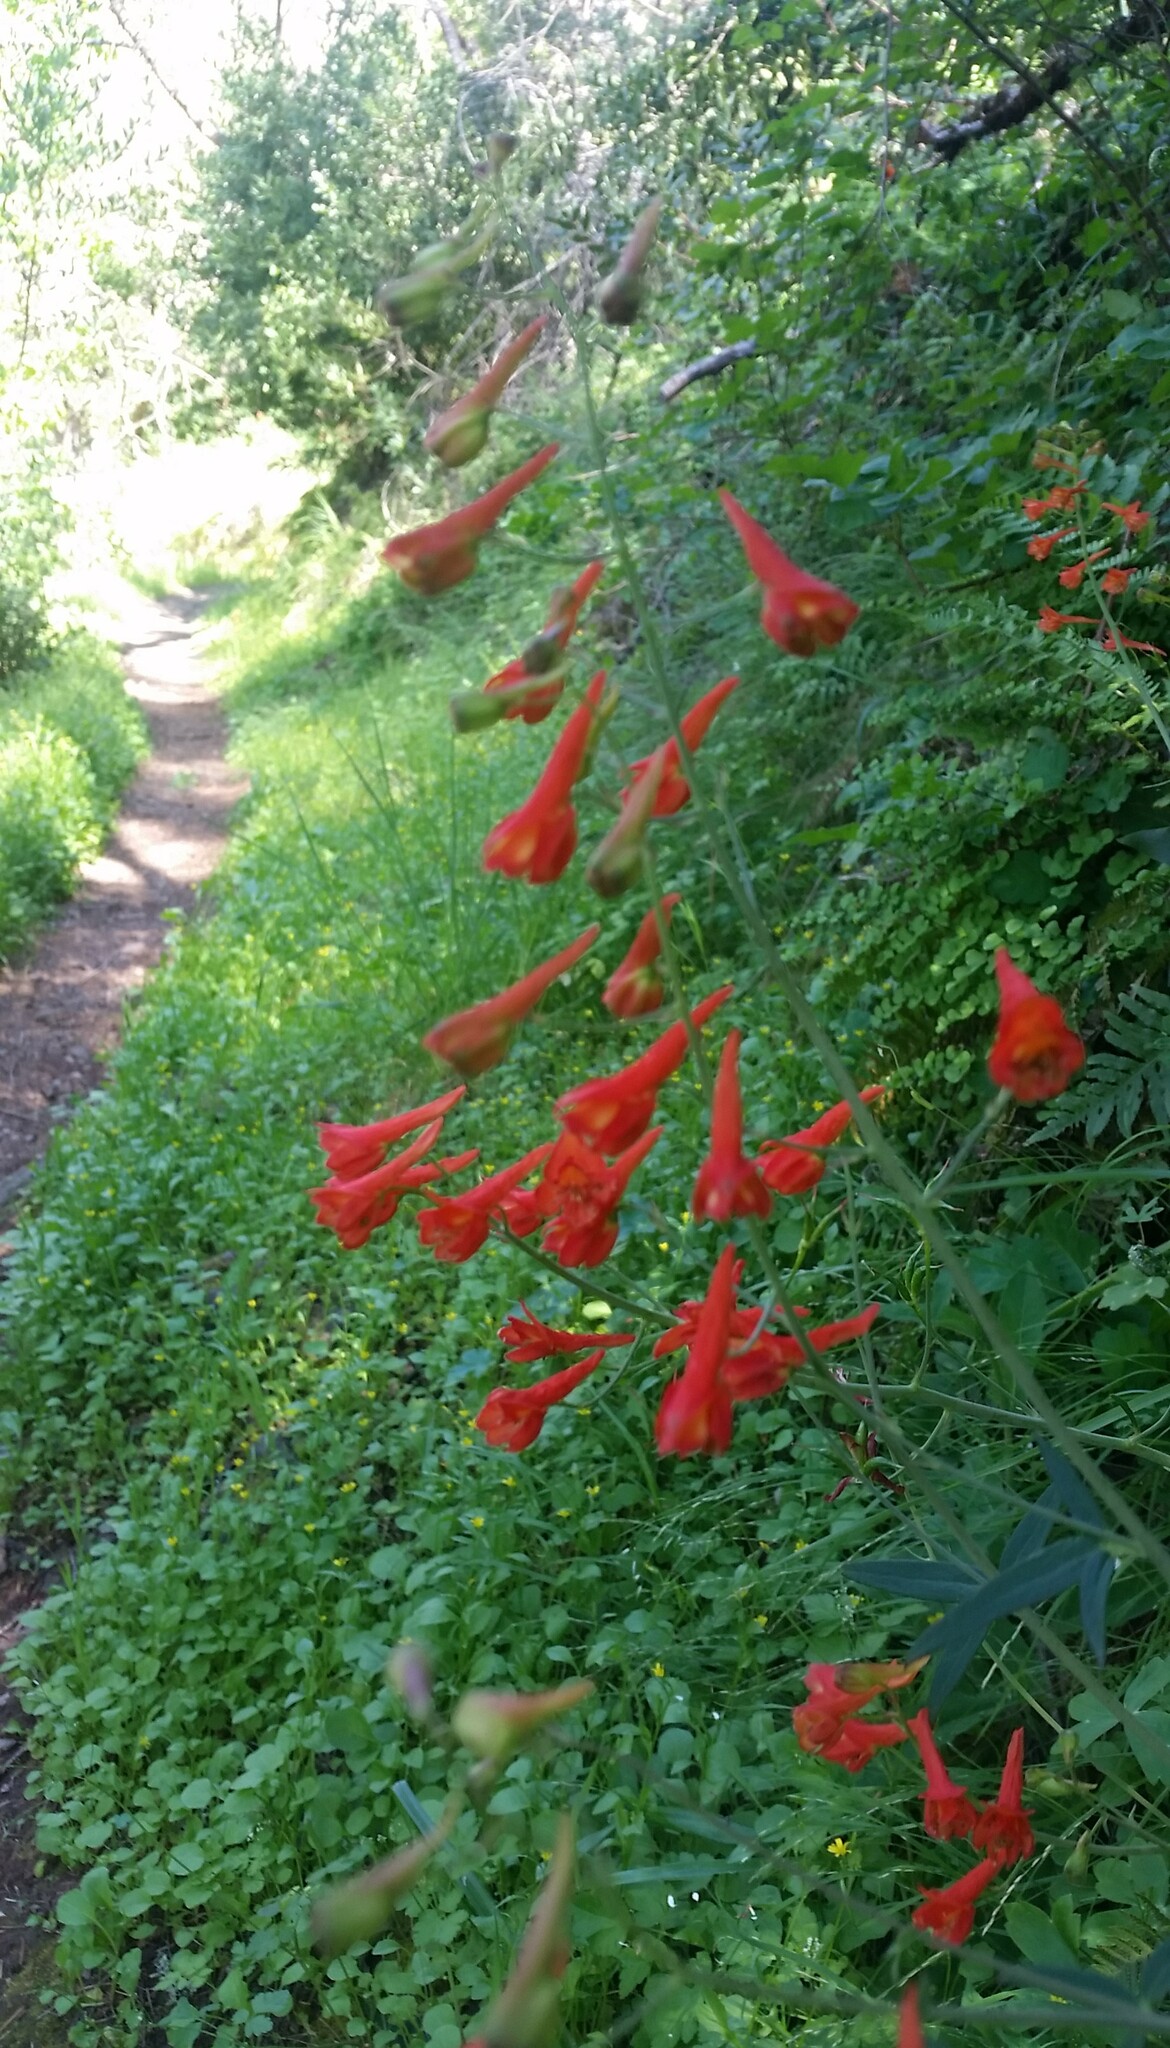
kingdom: Plantae
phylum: Tracheophyta
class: Magnoliopsida
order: Ranunculales
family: Ranunculaceae
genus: Delphinium
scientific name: Delphinium nudicaule
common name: Red larkspur
